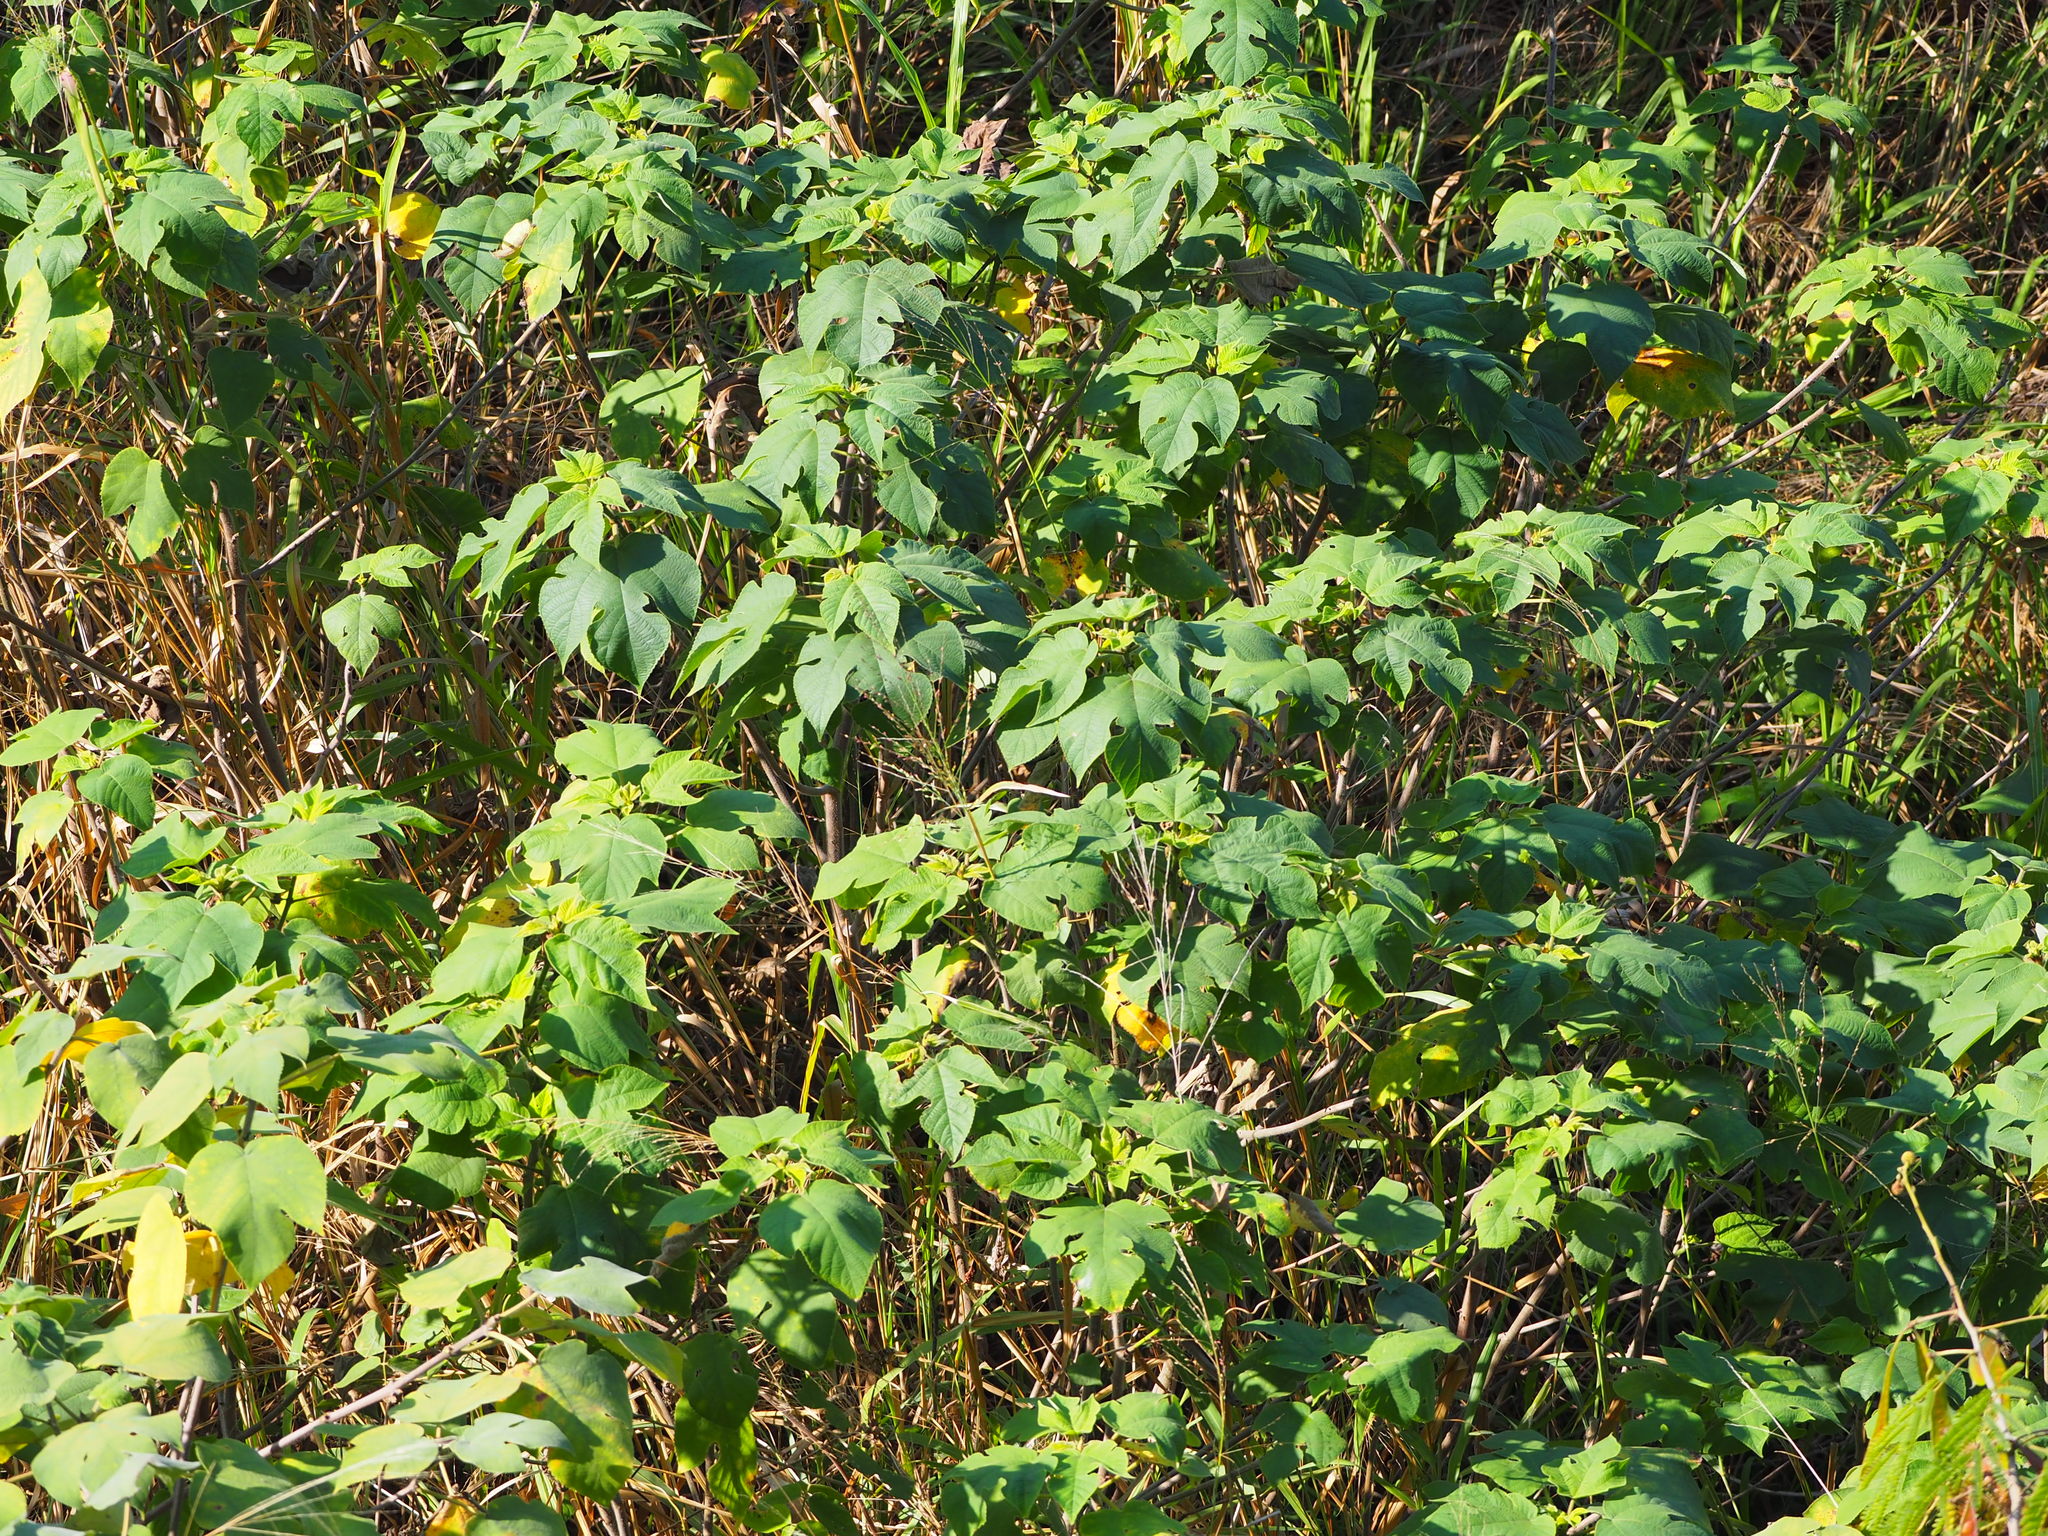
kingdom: Plantae
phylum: Tracheophyta
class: Magnoliopsida
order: Rosales
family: Moraceae
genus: Broussonetia
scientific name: Broussonetia papyrifera
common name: Paper mulberry
